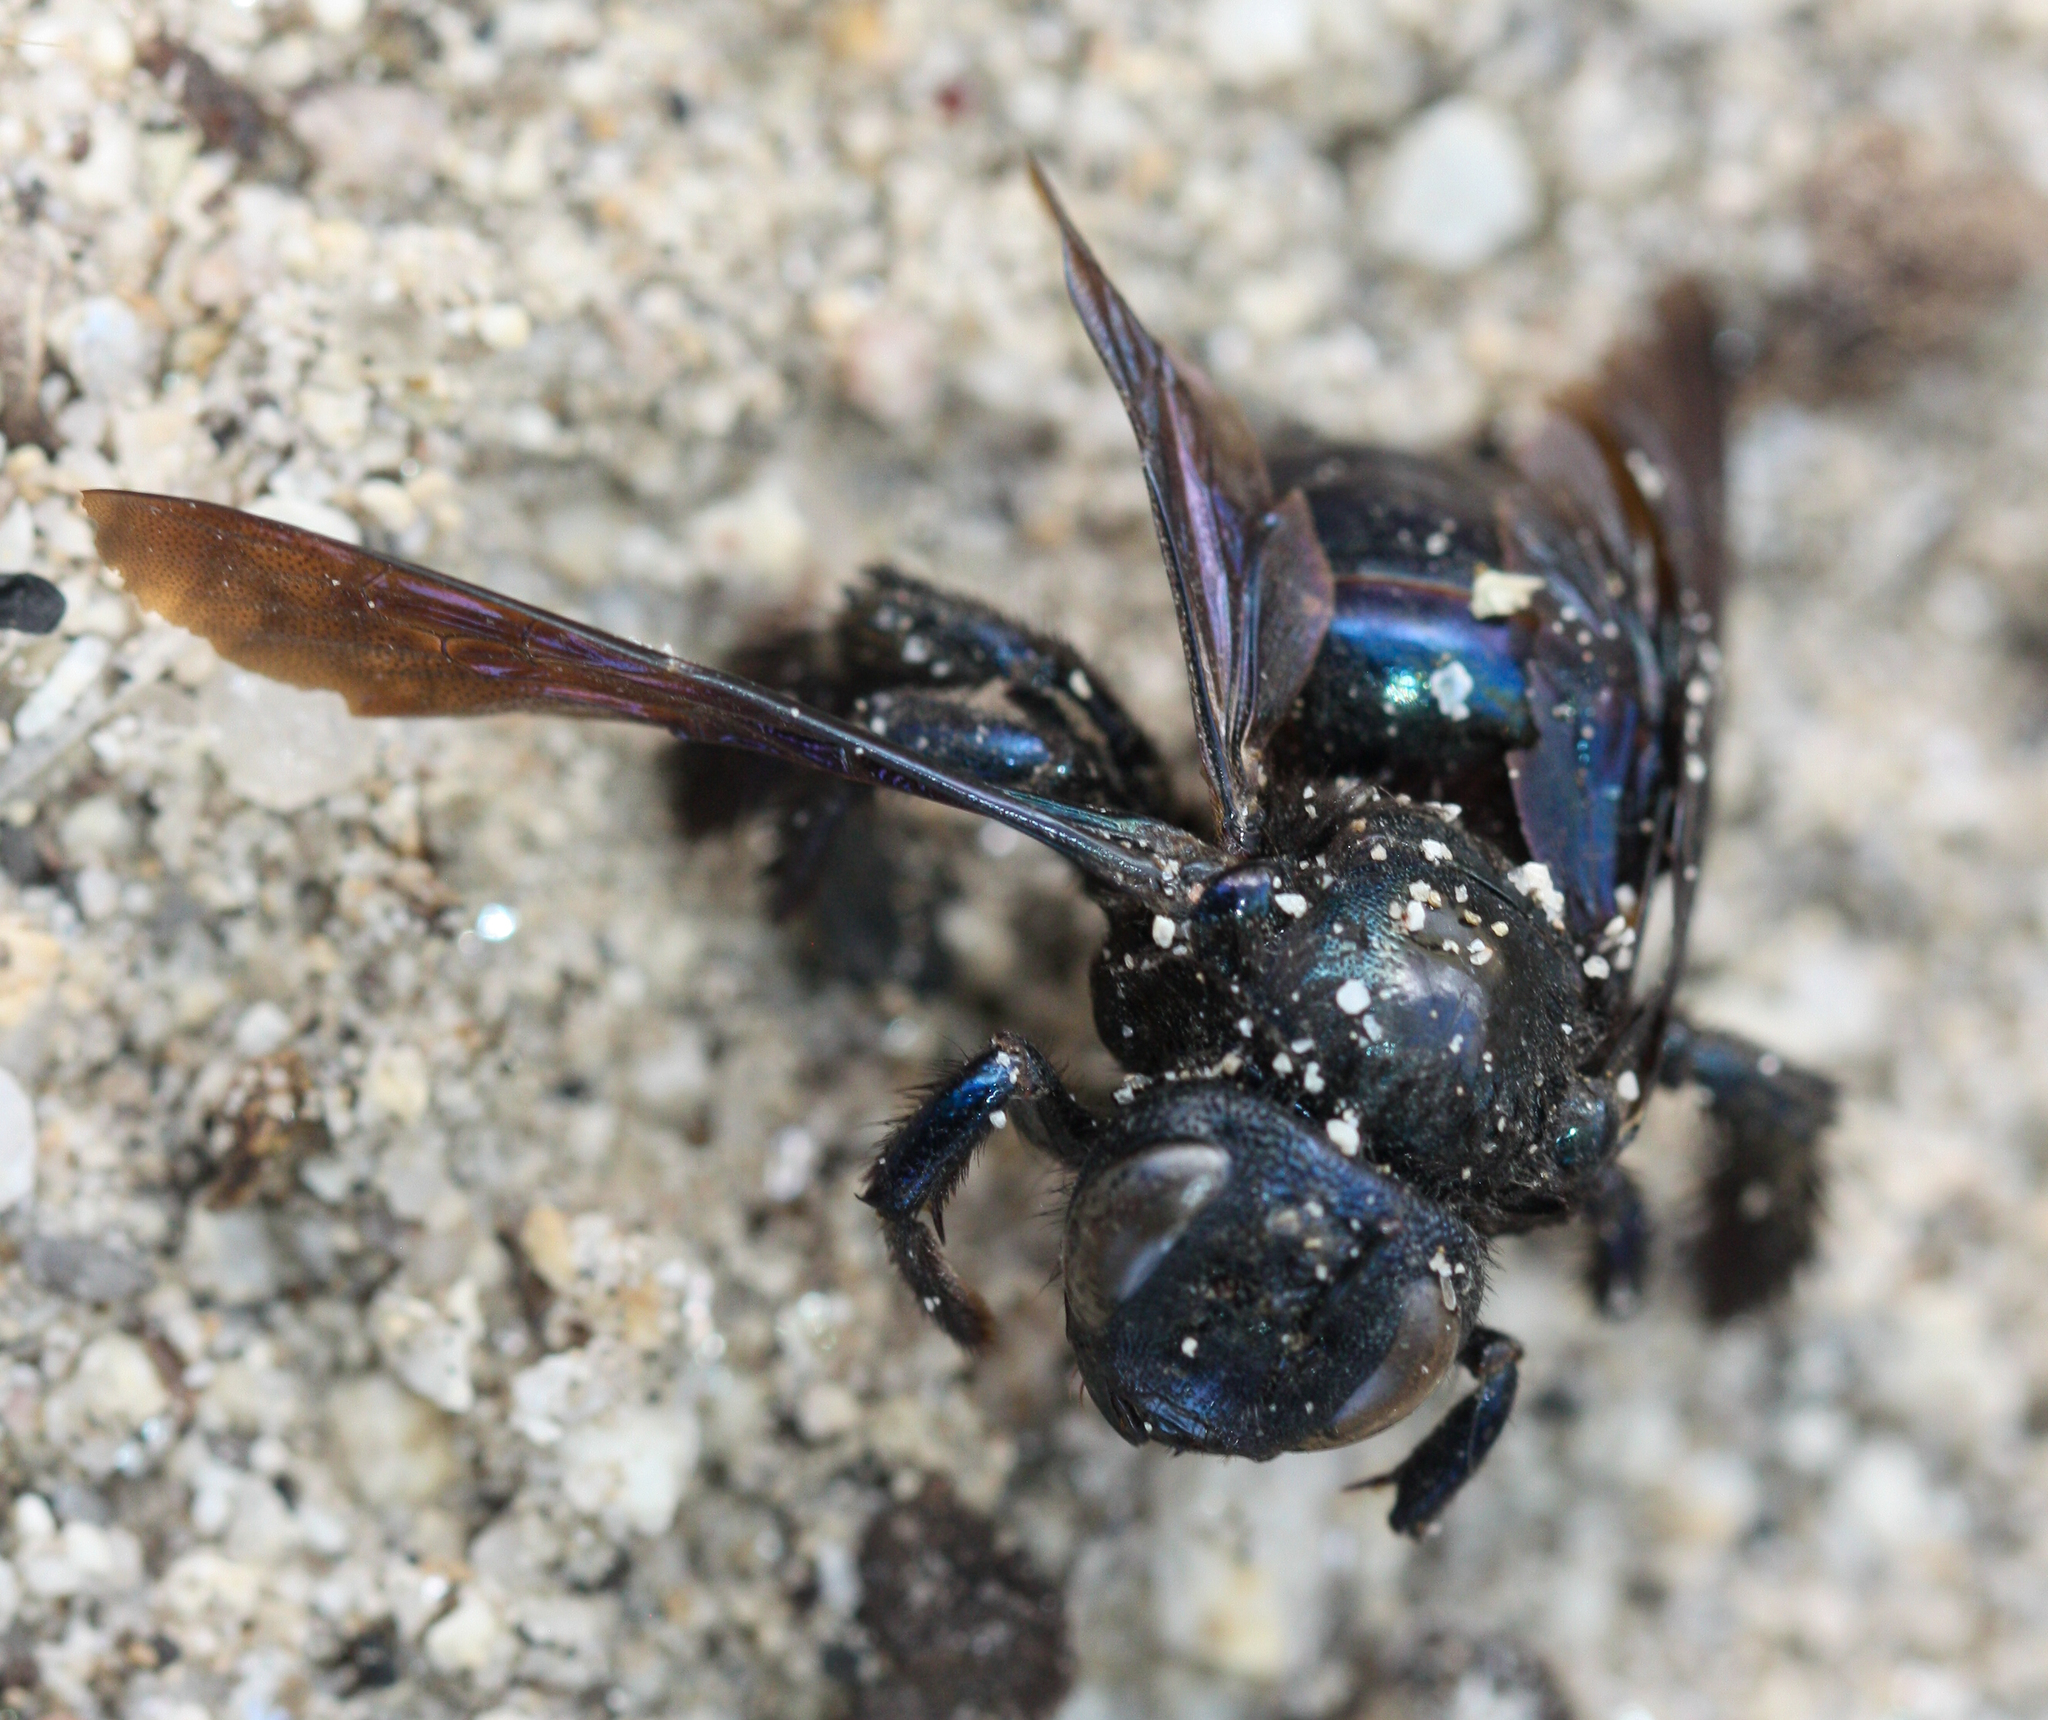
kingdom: Animalia
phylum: Arthropoda
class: Insecta
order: Hymenoptera
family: Apidae
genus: Xylocopa
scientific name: Xylocopa californica
